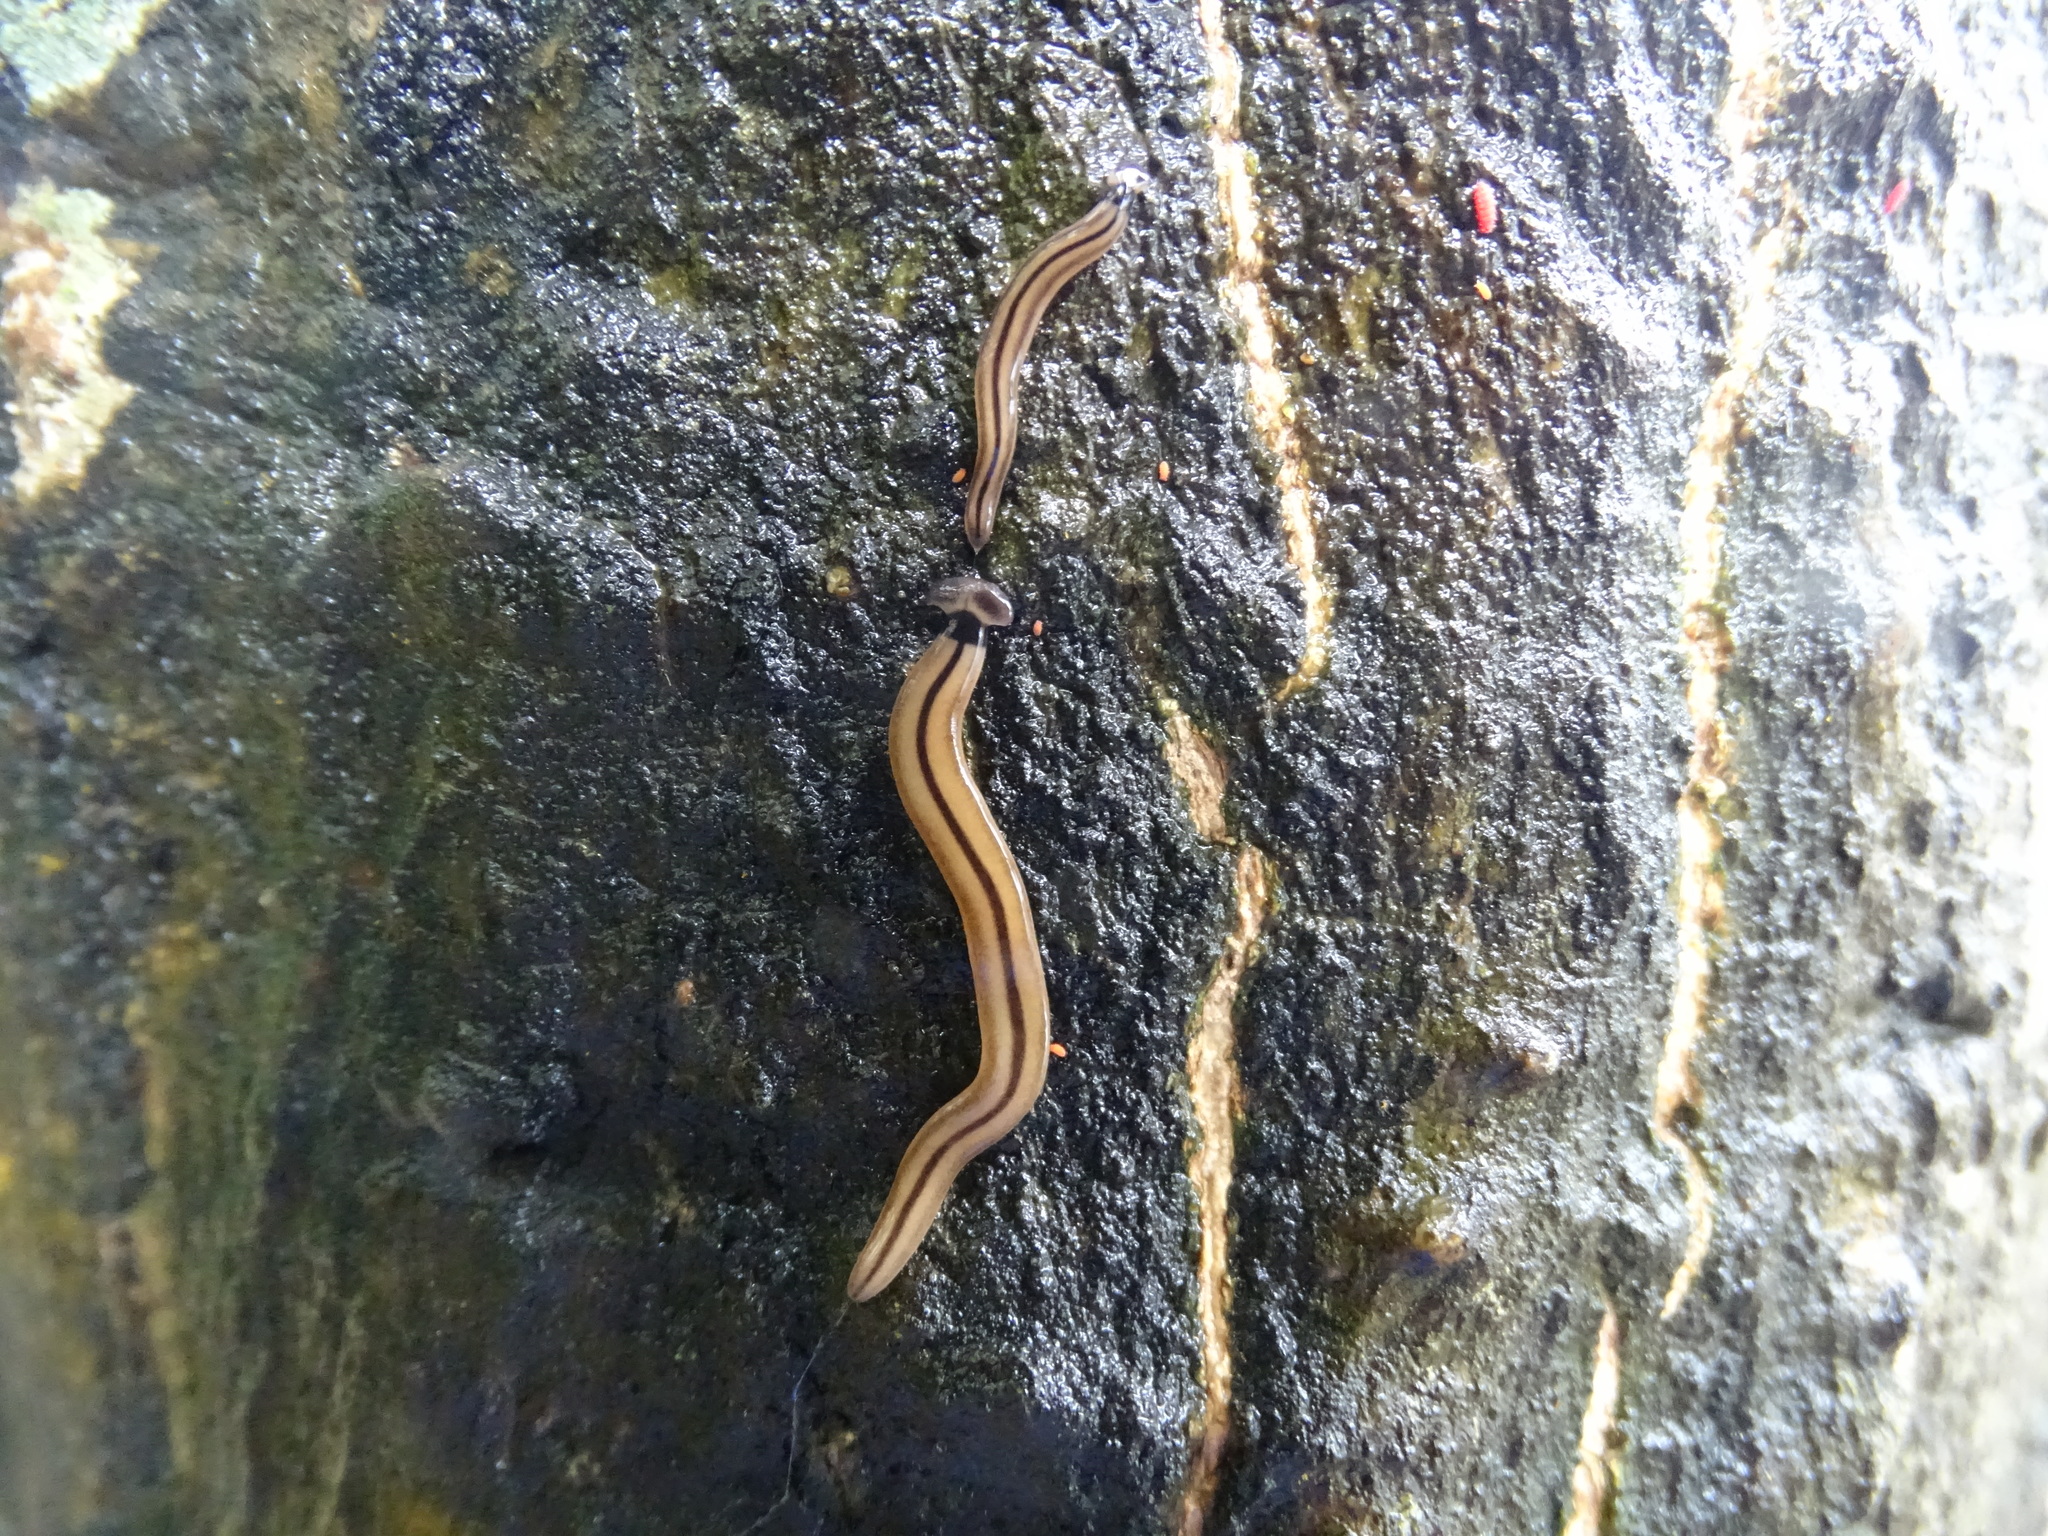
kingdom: Animalia
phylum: Platyhelminthes
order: Tricladida
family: Geoplanidae
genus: Bipalium
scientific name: Bipalium vagum
